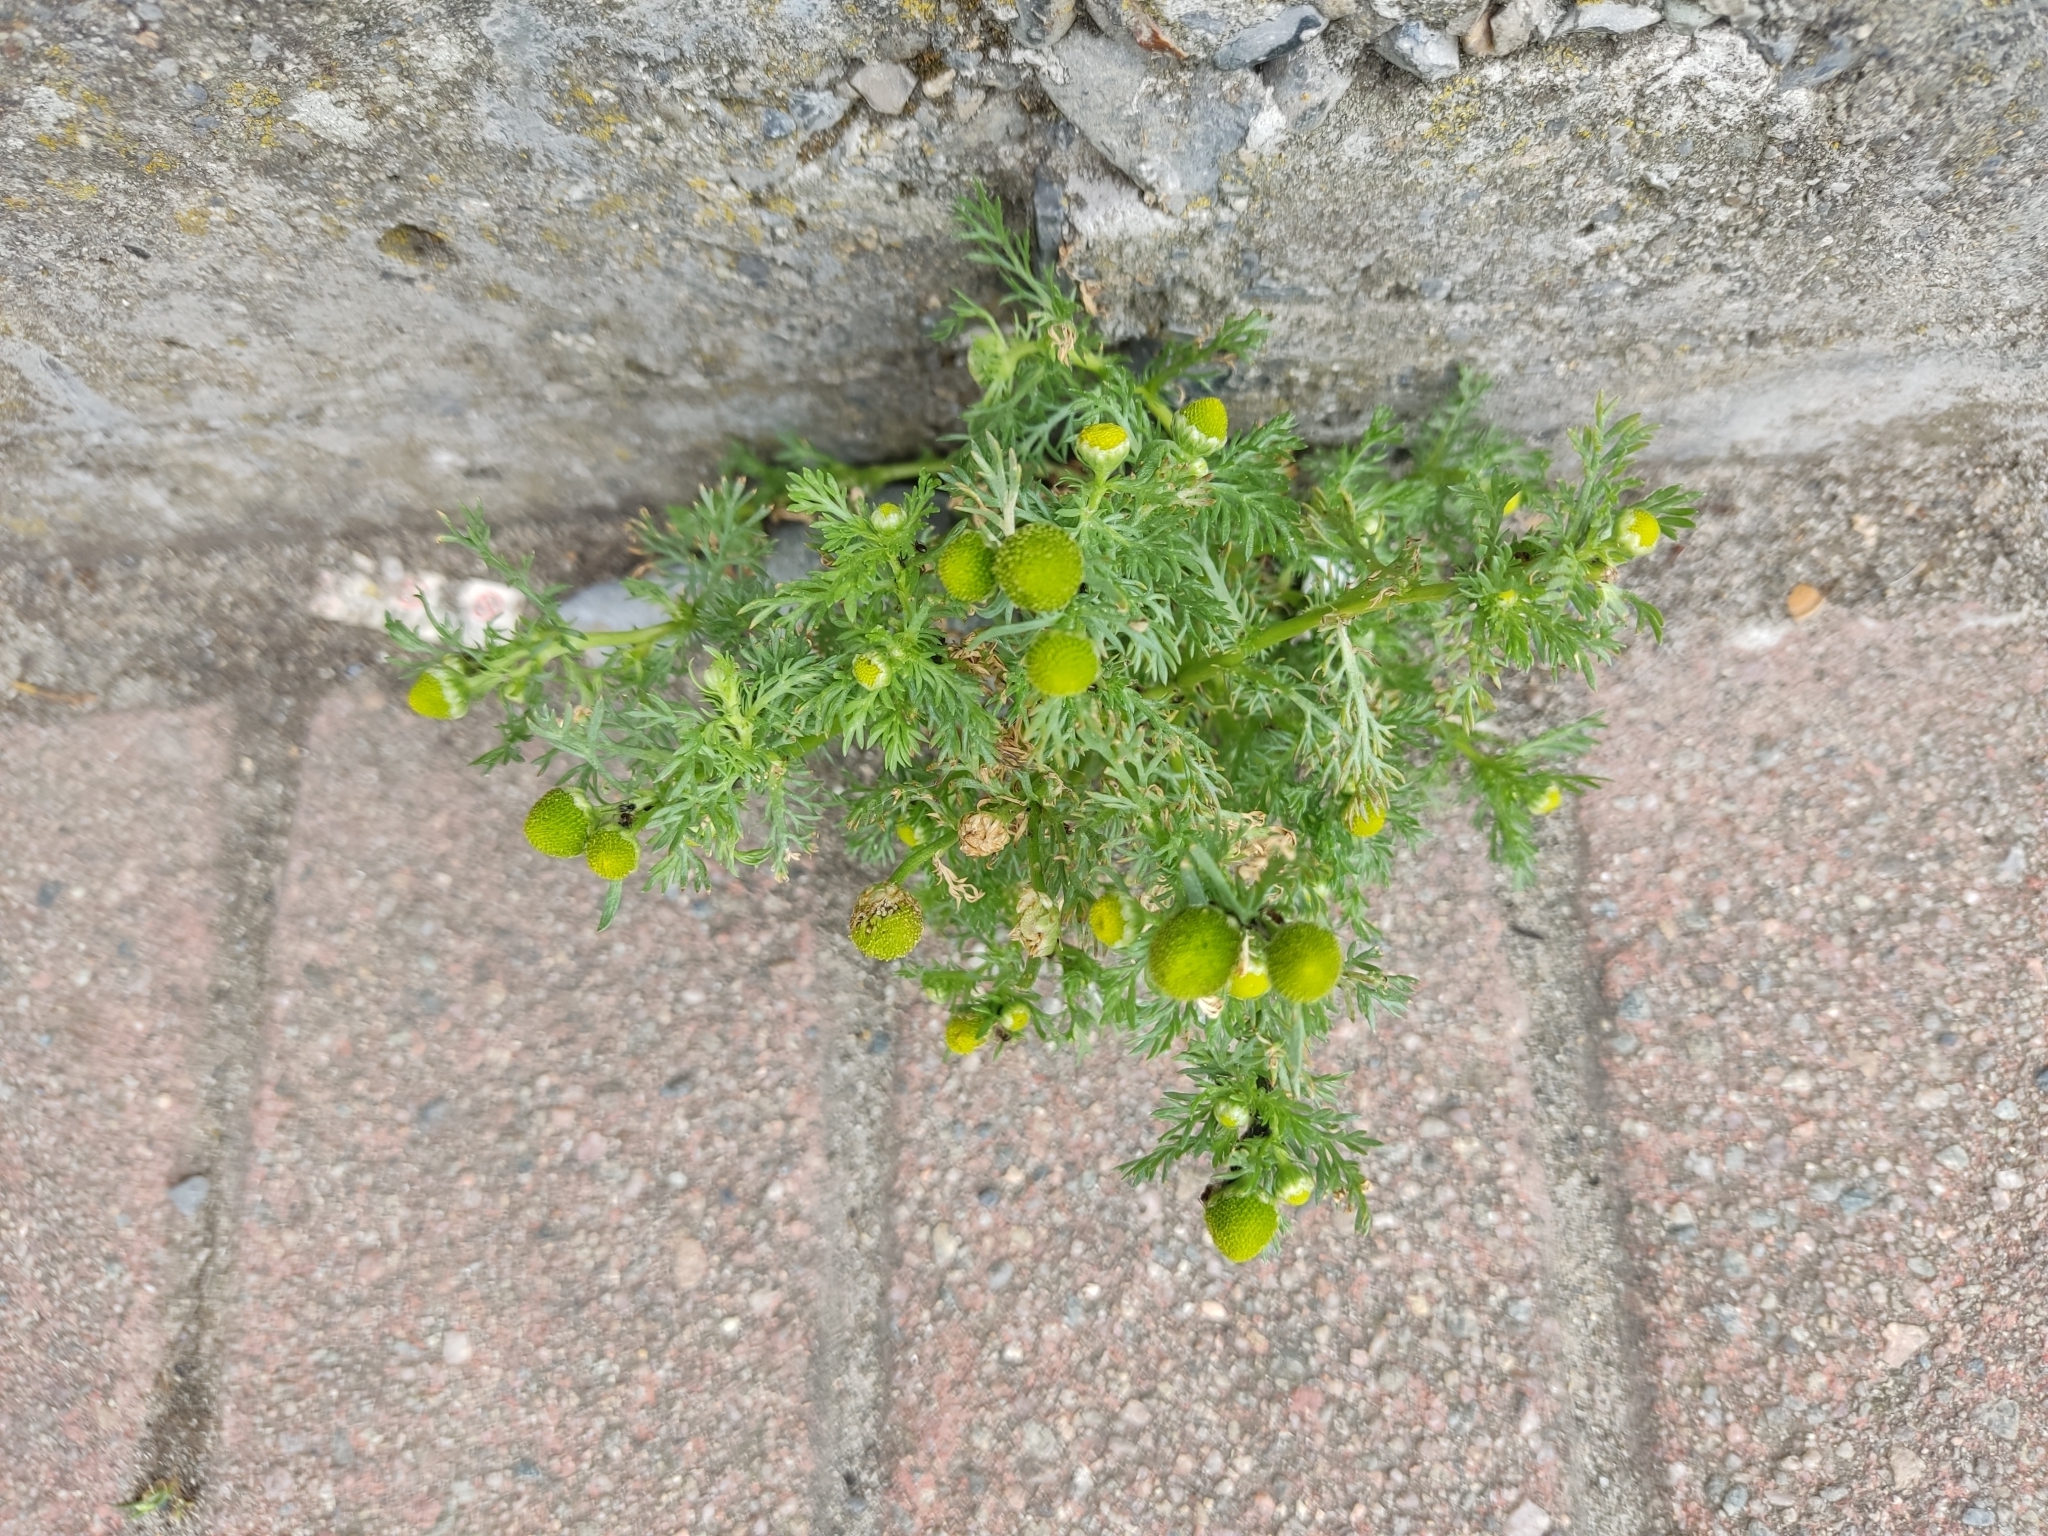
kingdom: Plantae
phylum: Tracheophyta
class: Magnoliopsida
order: Asterales
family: Asteraceae
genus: Matricaria
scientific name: Matricaria discoidea
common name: Disc mayweed
